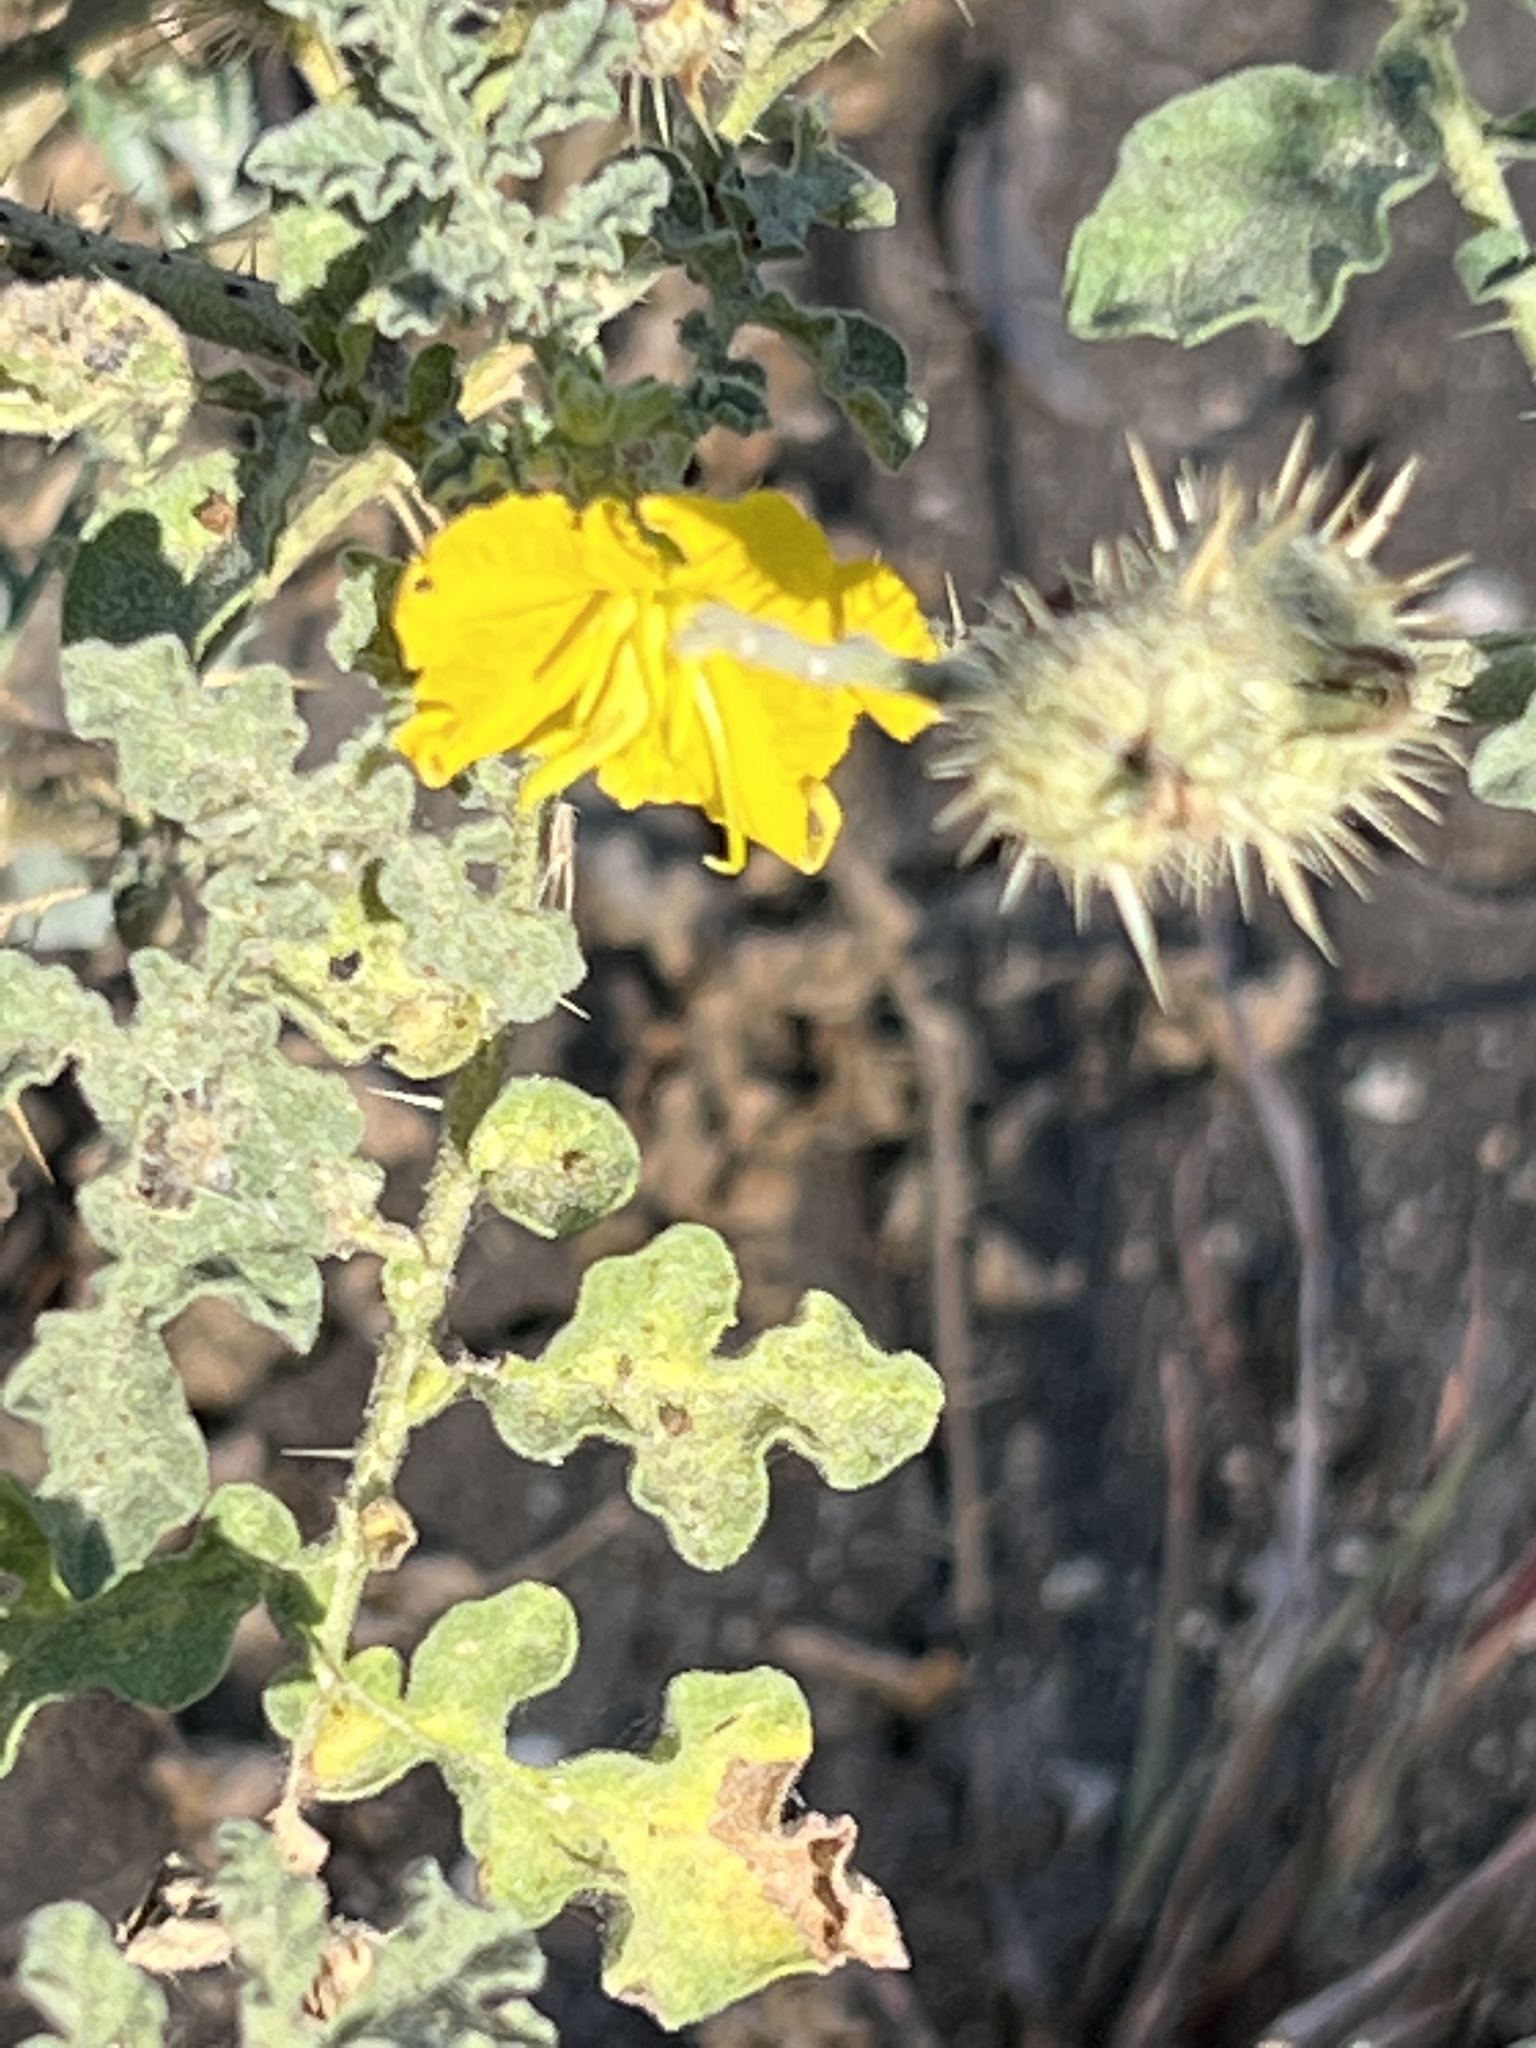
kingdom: Plantae
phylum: Tracheophyta
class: Magnoliopsida
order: Solanales
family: Solanaceae
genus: Solanum
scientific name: Solanum angustifolium
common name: Buffalobur nightshade
